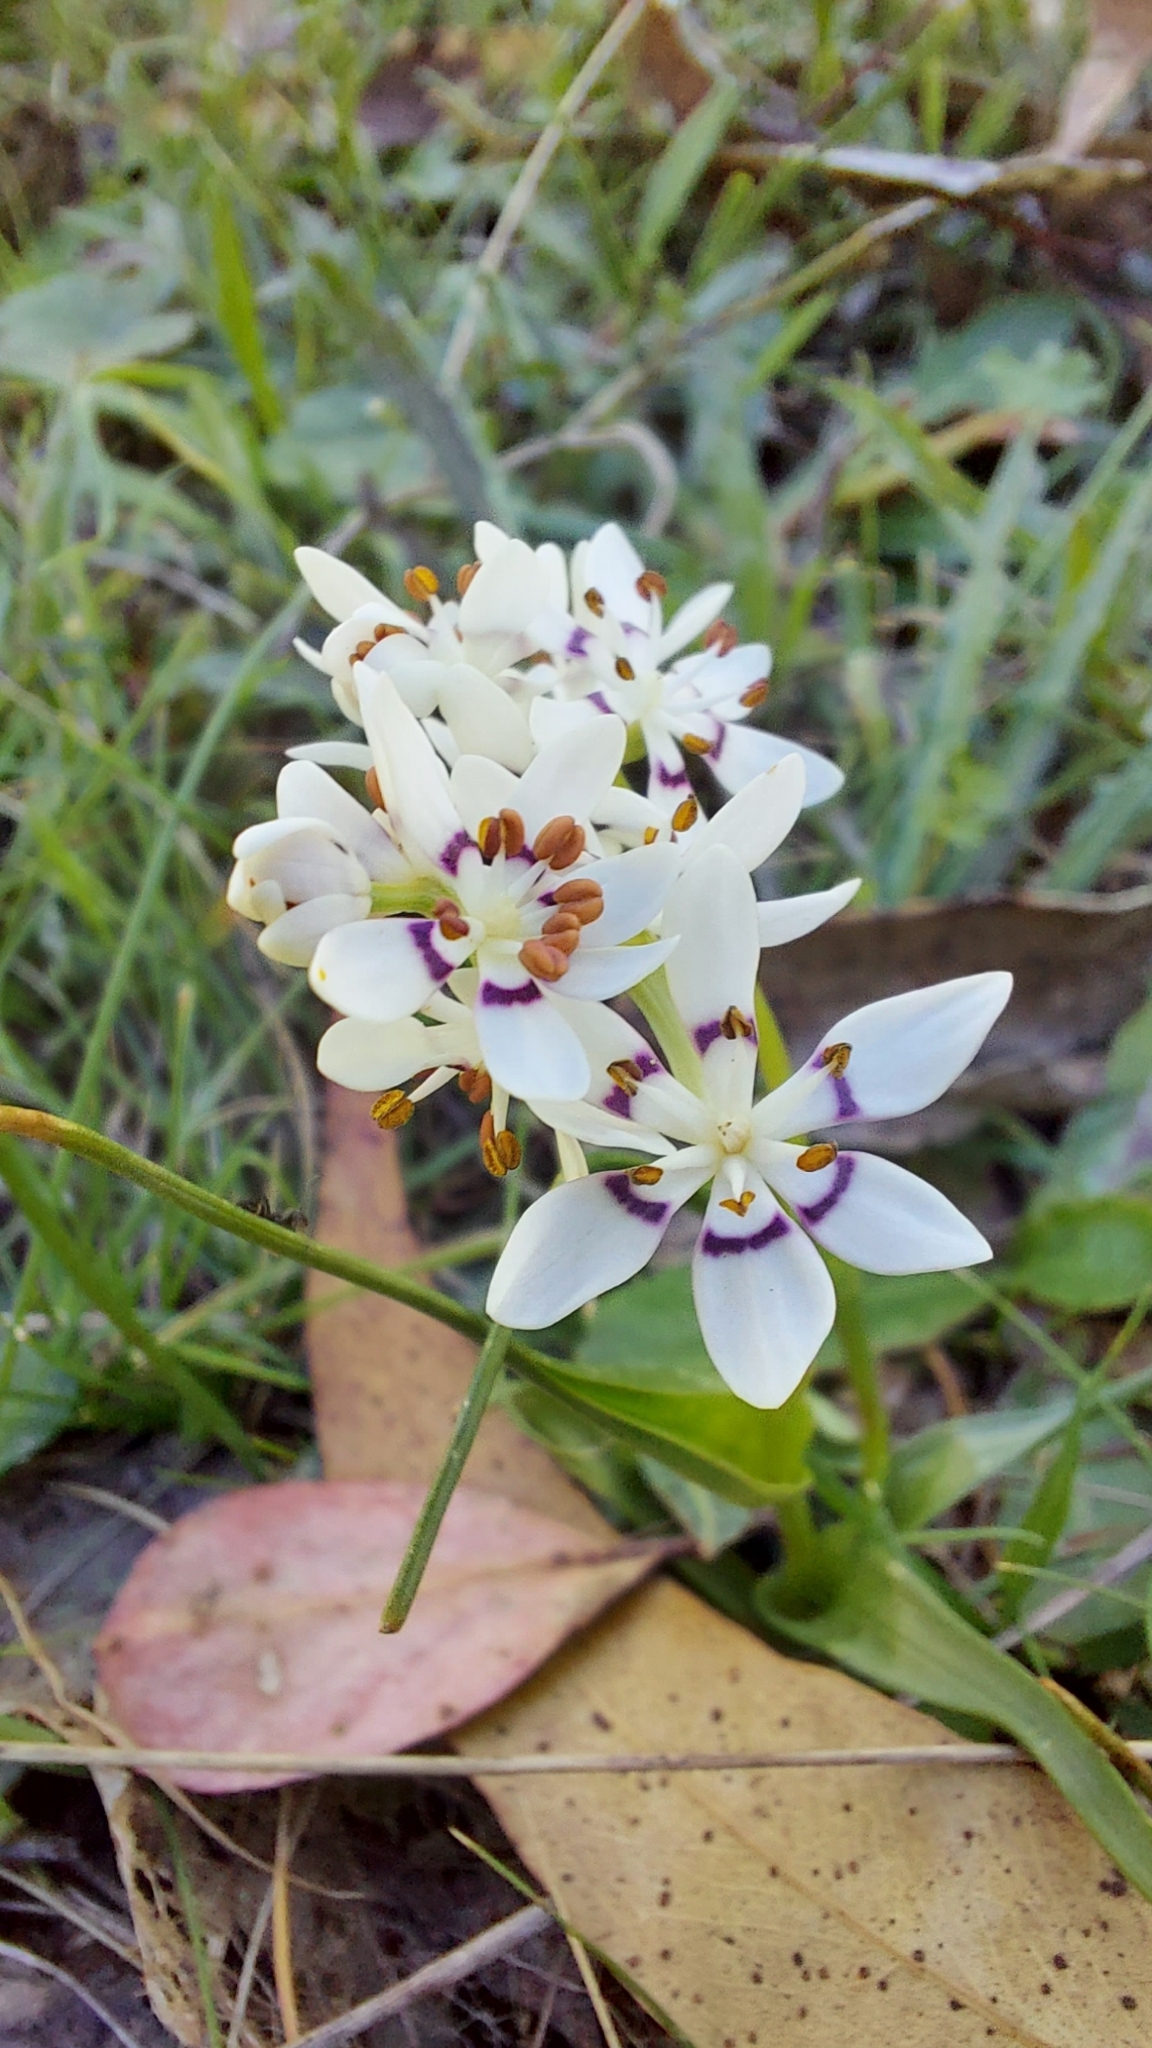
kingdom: Plantae
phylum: Tracheophyta
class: Liliopsida
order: Liliales
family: Colchicaceae
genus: Wurmbea
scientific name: Wurmbea dioica
